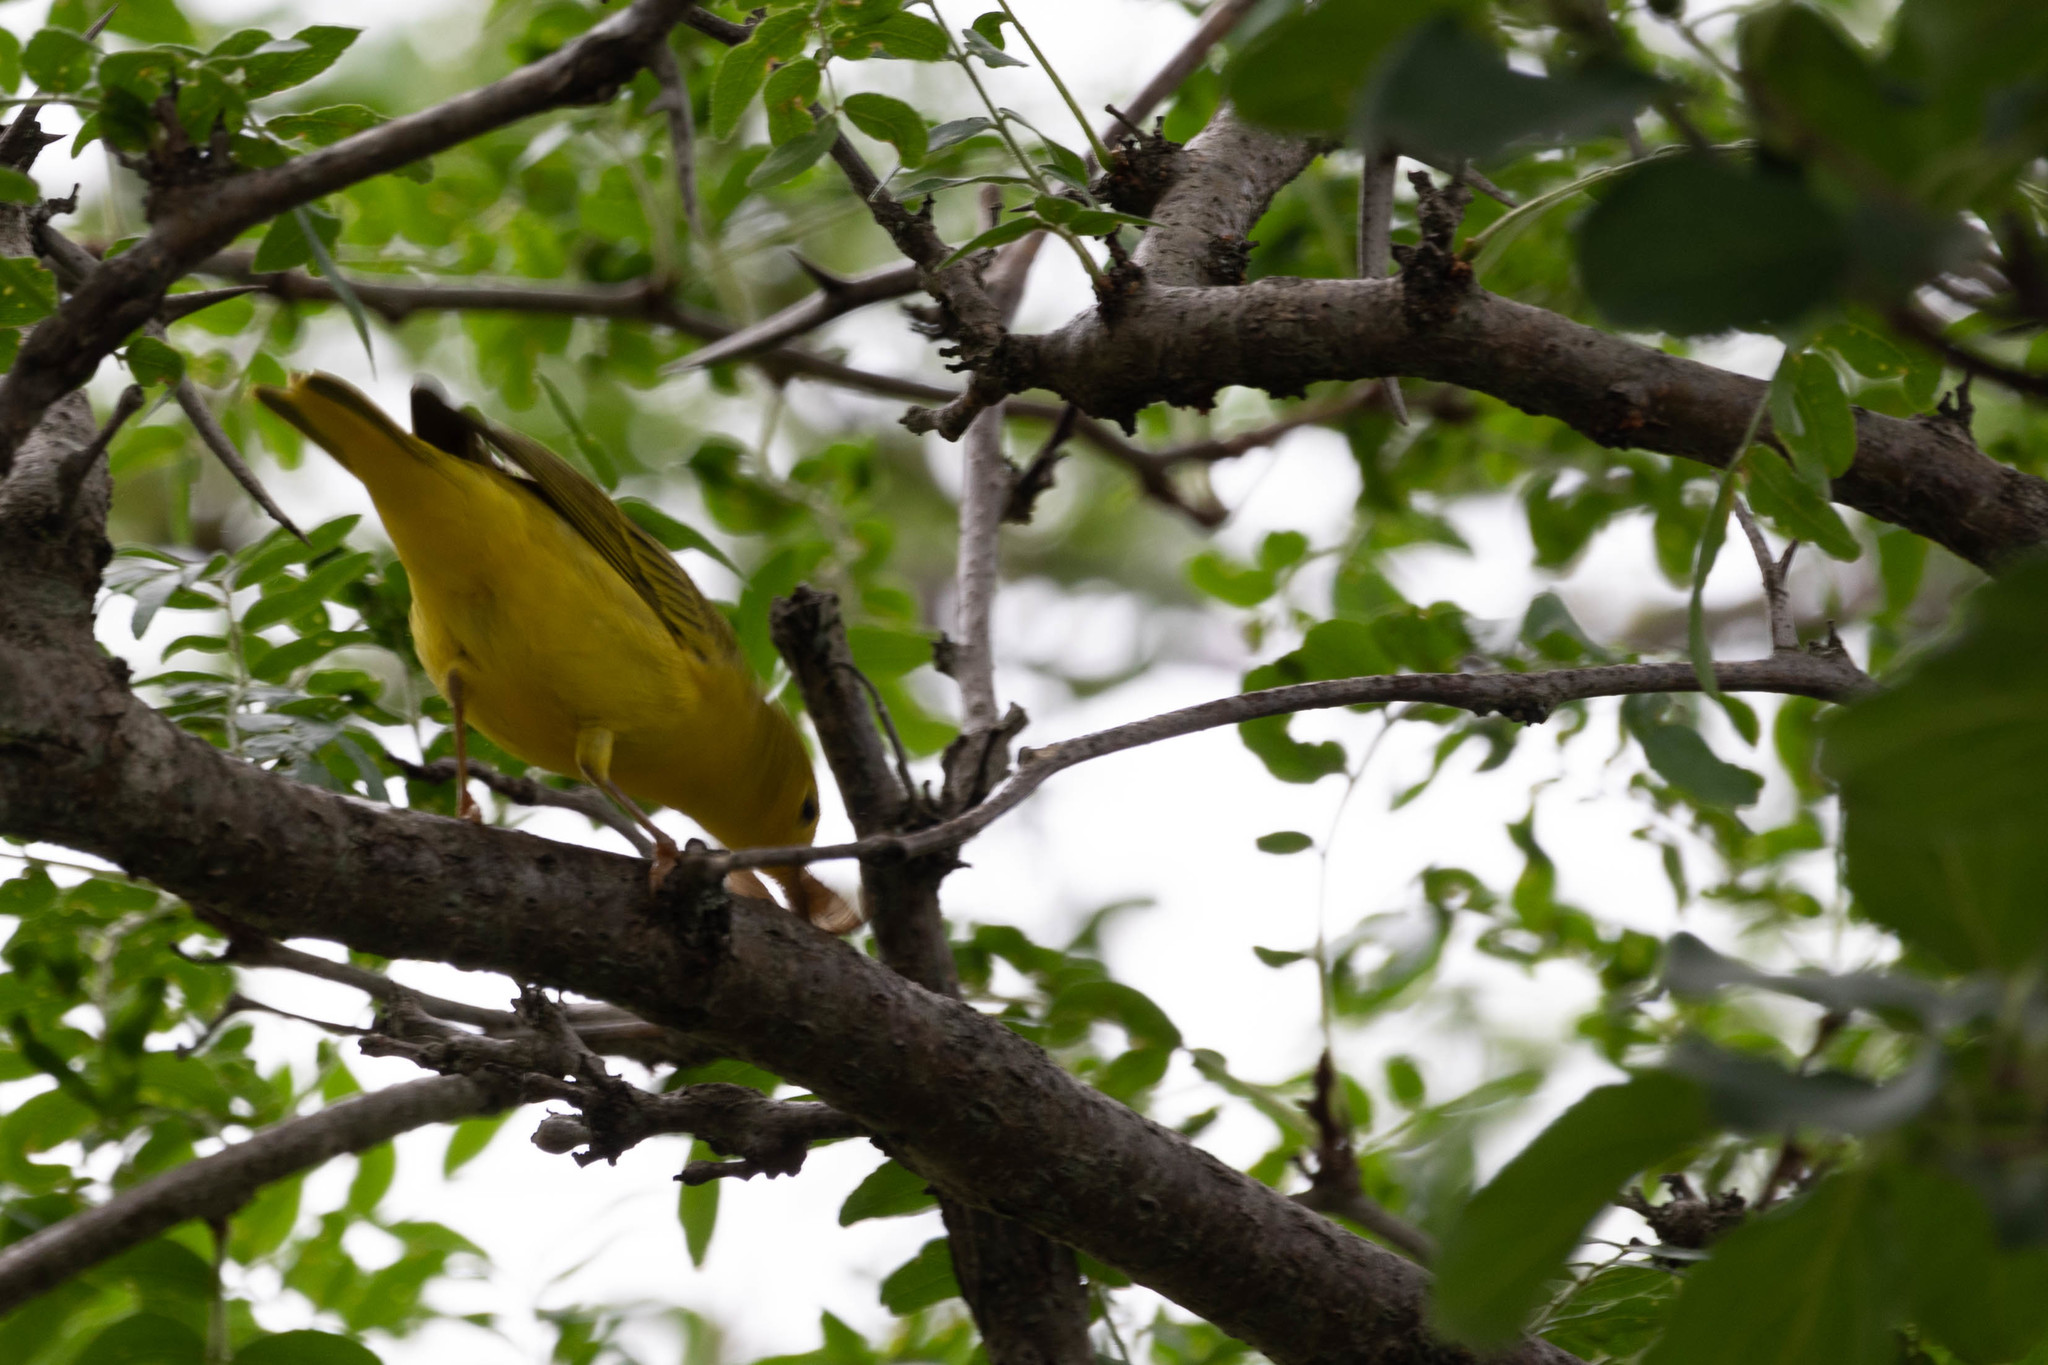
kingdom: Animalia
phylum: Chordata
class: Aves
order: Passeriformes
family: Parulidae
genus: Setophaga
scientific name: Setophaga petechia
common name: Yellow warbler
